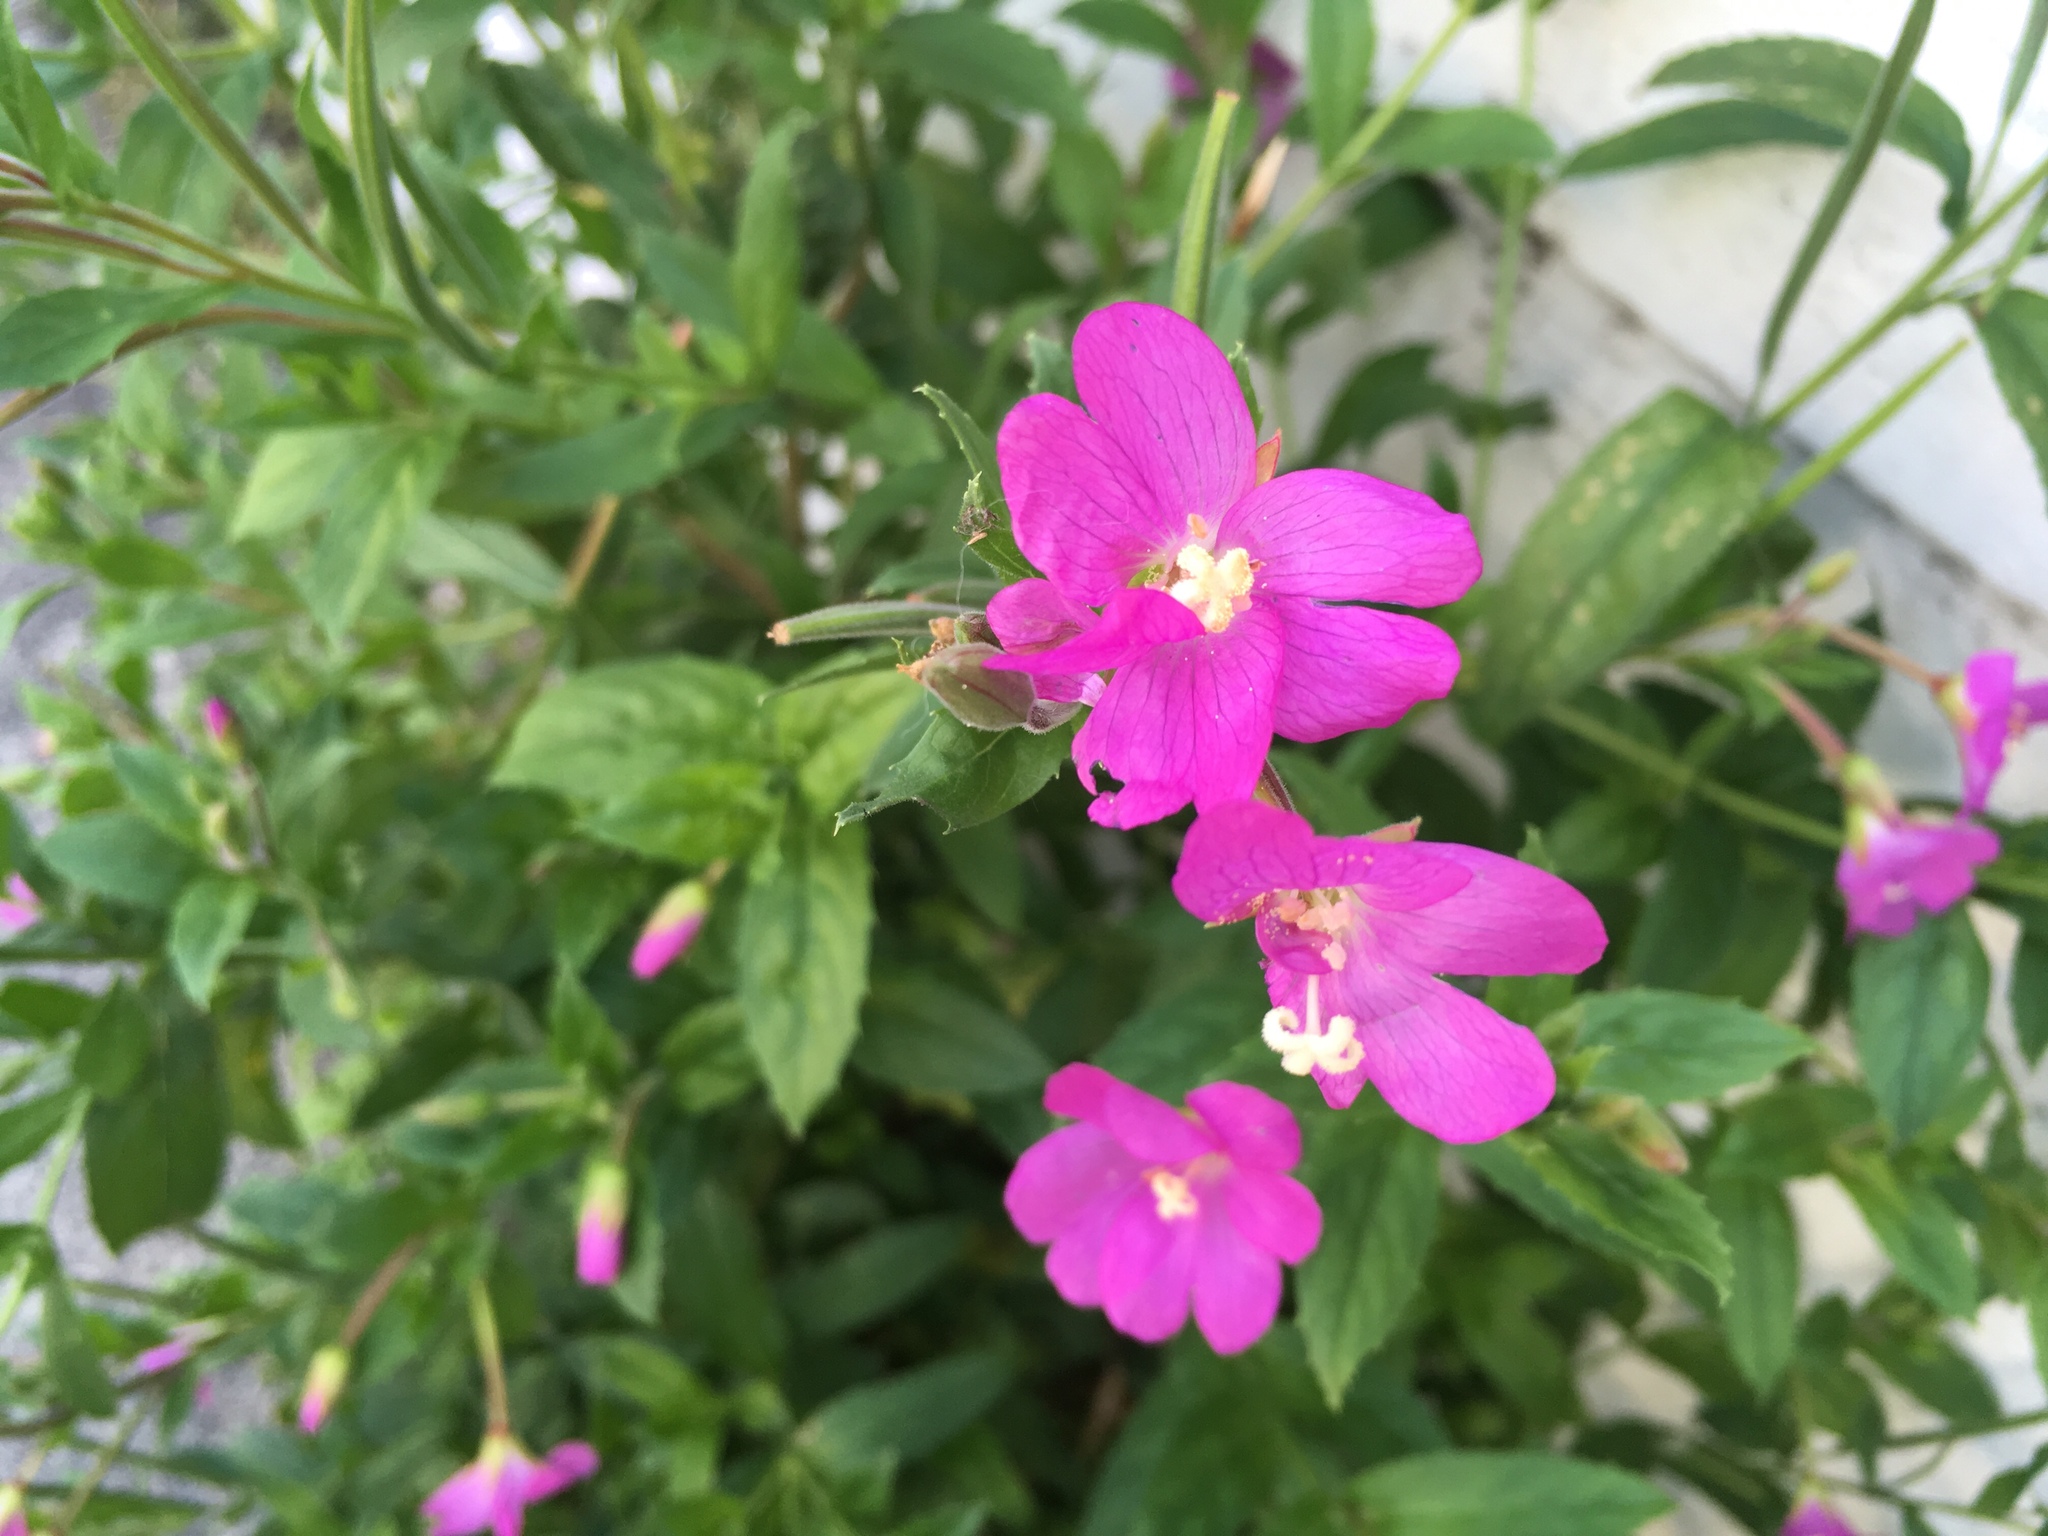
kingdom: Plantae
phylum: Tracheophyta
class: Magnoliopsida
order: Myrtales
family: Onagraceae
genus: Epilobium
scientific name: Epilobium hirsutum
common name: Great willowherb
